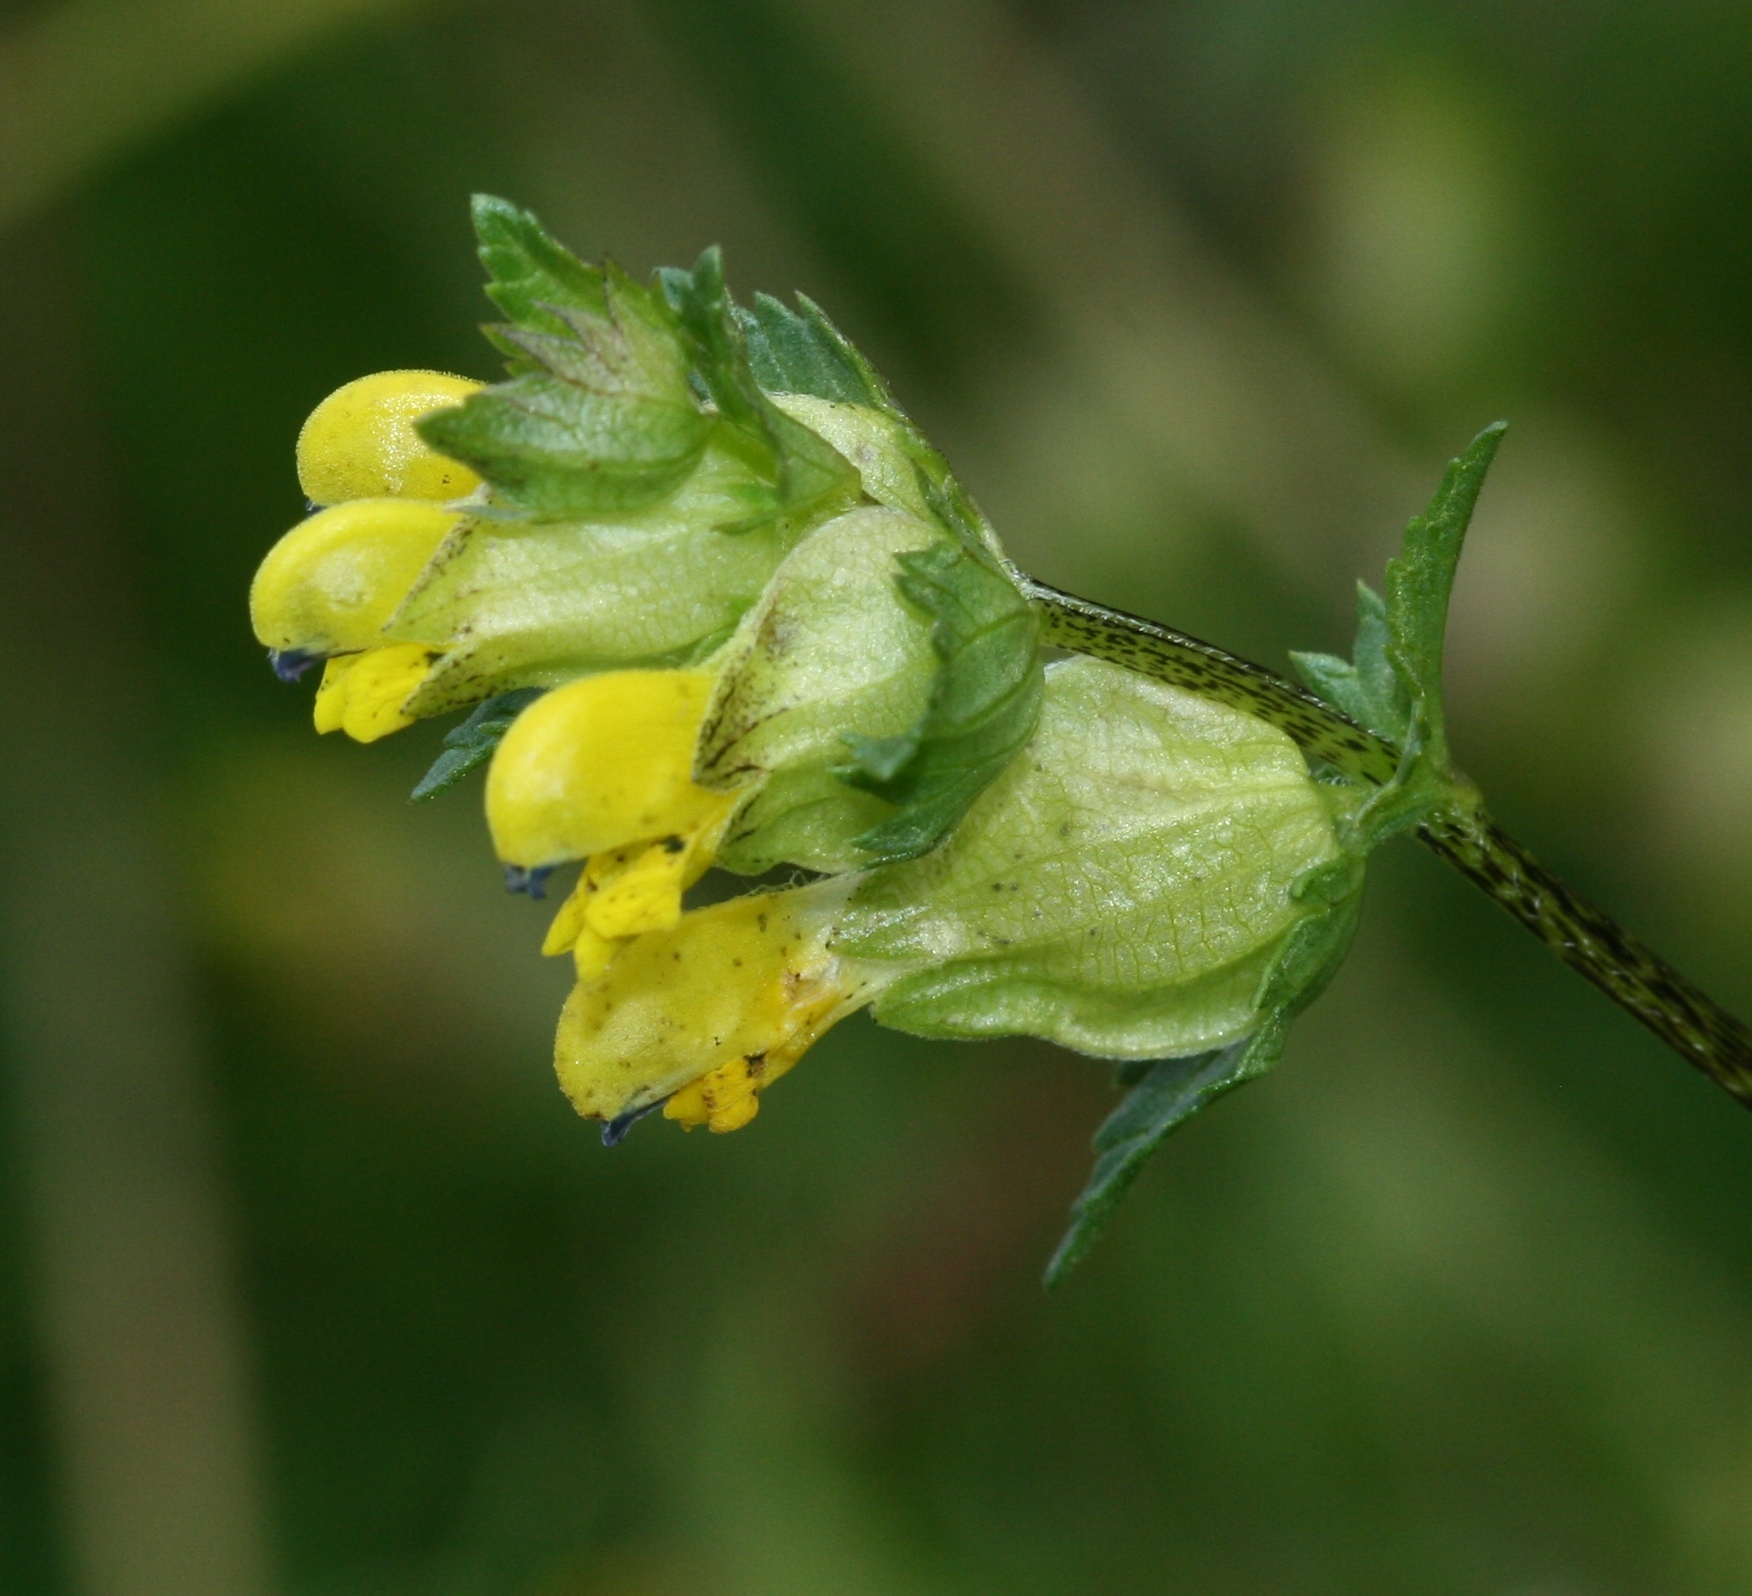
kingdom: Plantae
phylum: Tracheophyta
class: Magnoliopsida
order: Lamiales
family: Orobanchaceae
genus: Rhinanthus
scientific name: Rhinanthus minor
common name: Yellow-rattle
